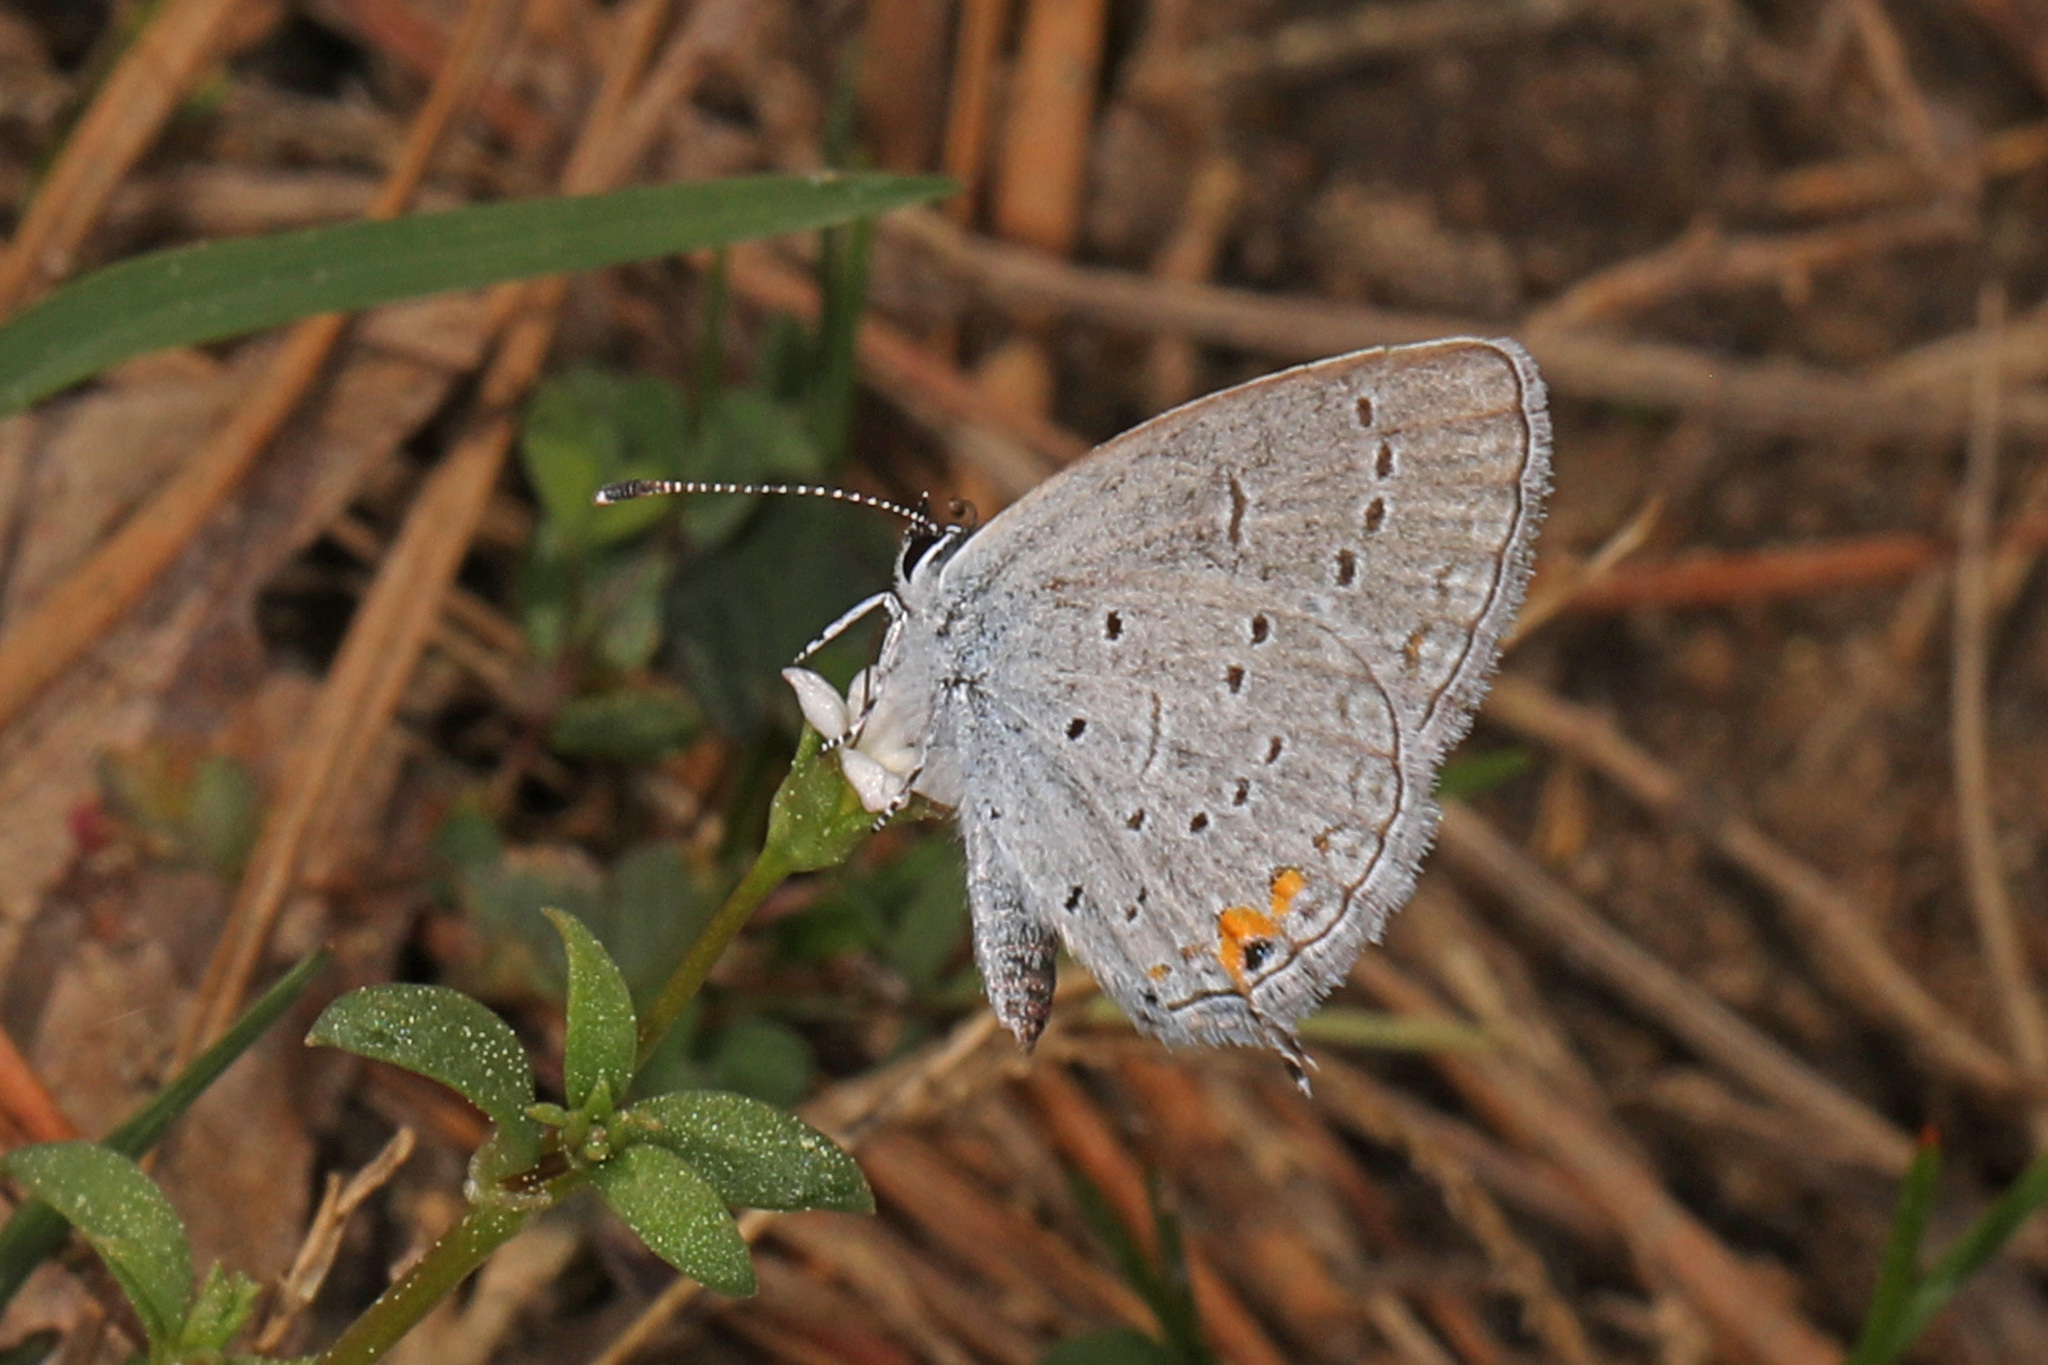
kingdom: Animalia
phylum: Arthropoda
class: Insecta
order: Lepidoptera
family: Lycaenidae
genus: Elkalyce
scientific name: Elkalyce comyntas
